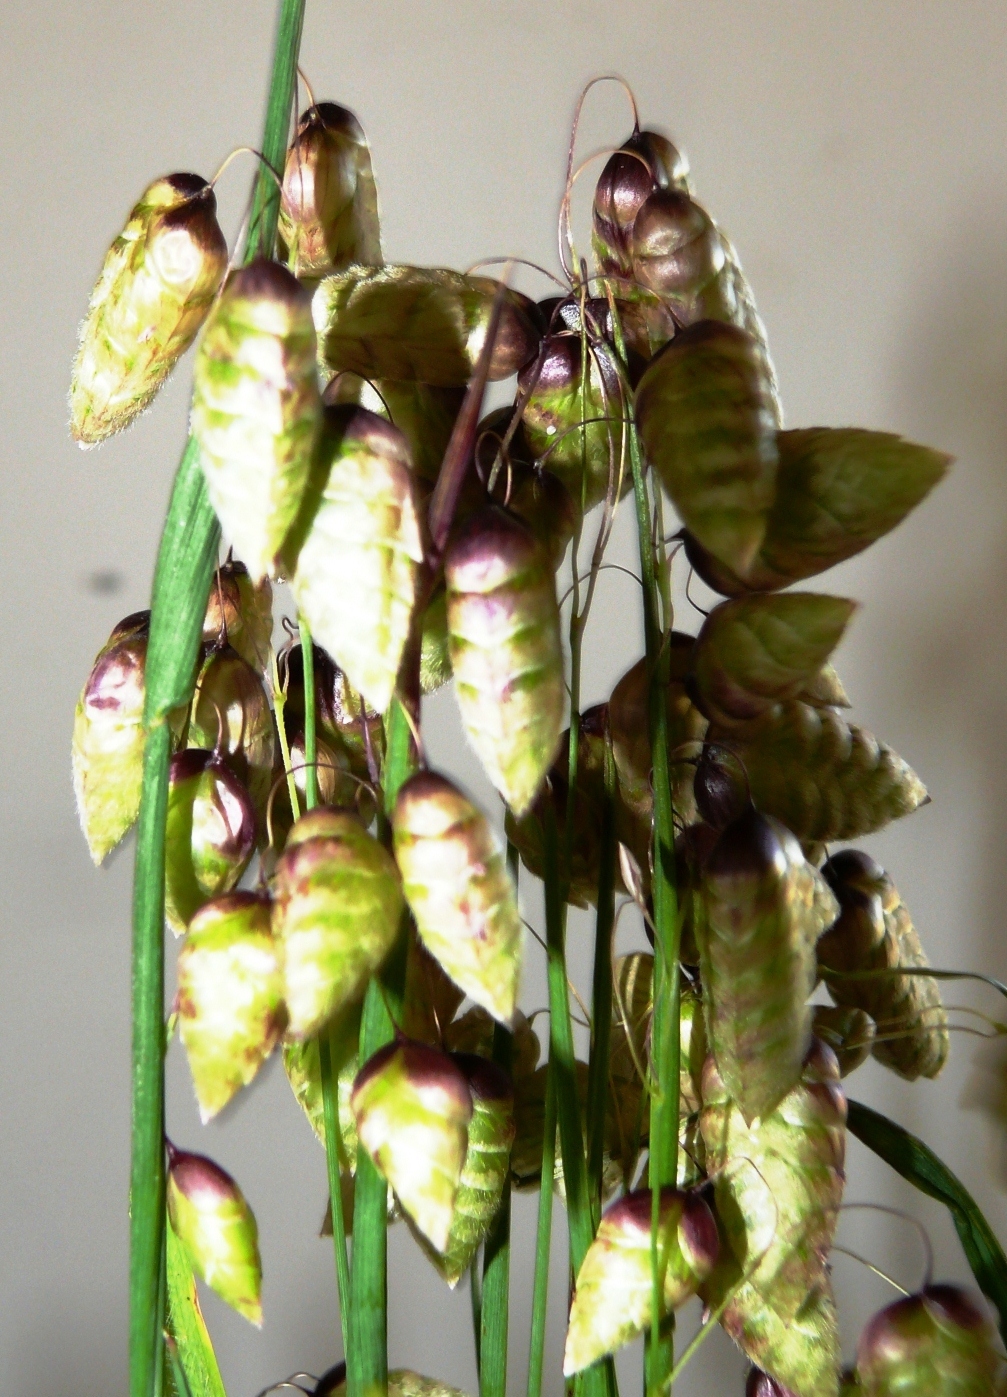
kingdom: Plantae
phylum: Tracheophyta
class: Liliopsida
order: Poales
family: Poaceae
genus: Briza
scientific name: Briza maxima
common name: Big quakinggrass
